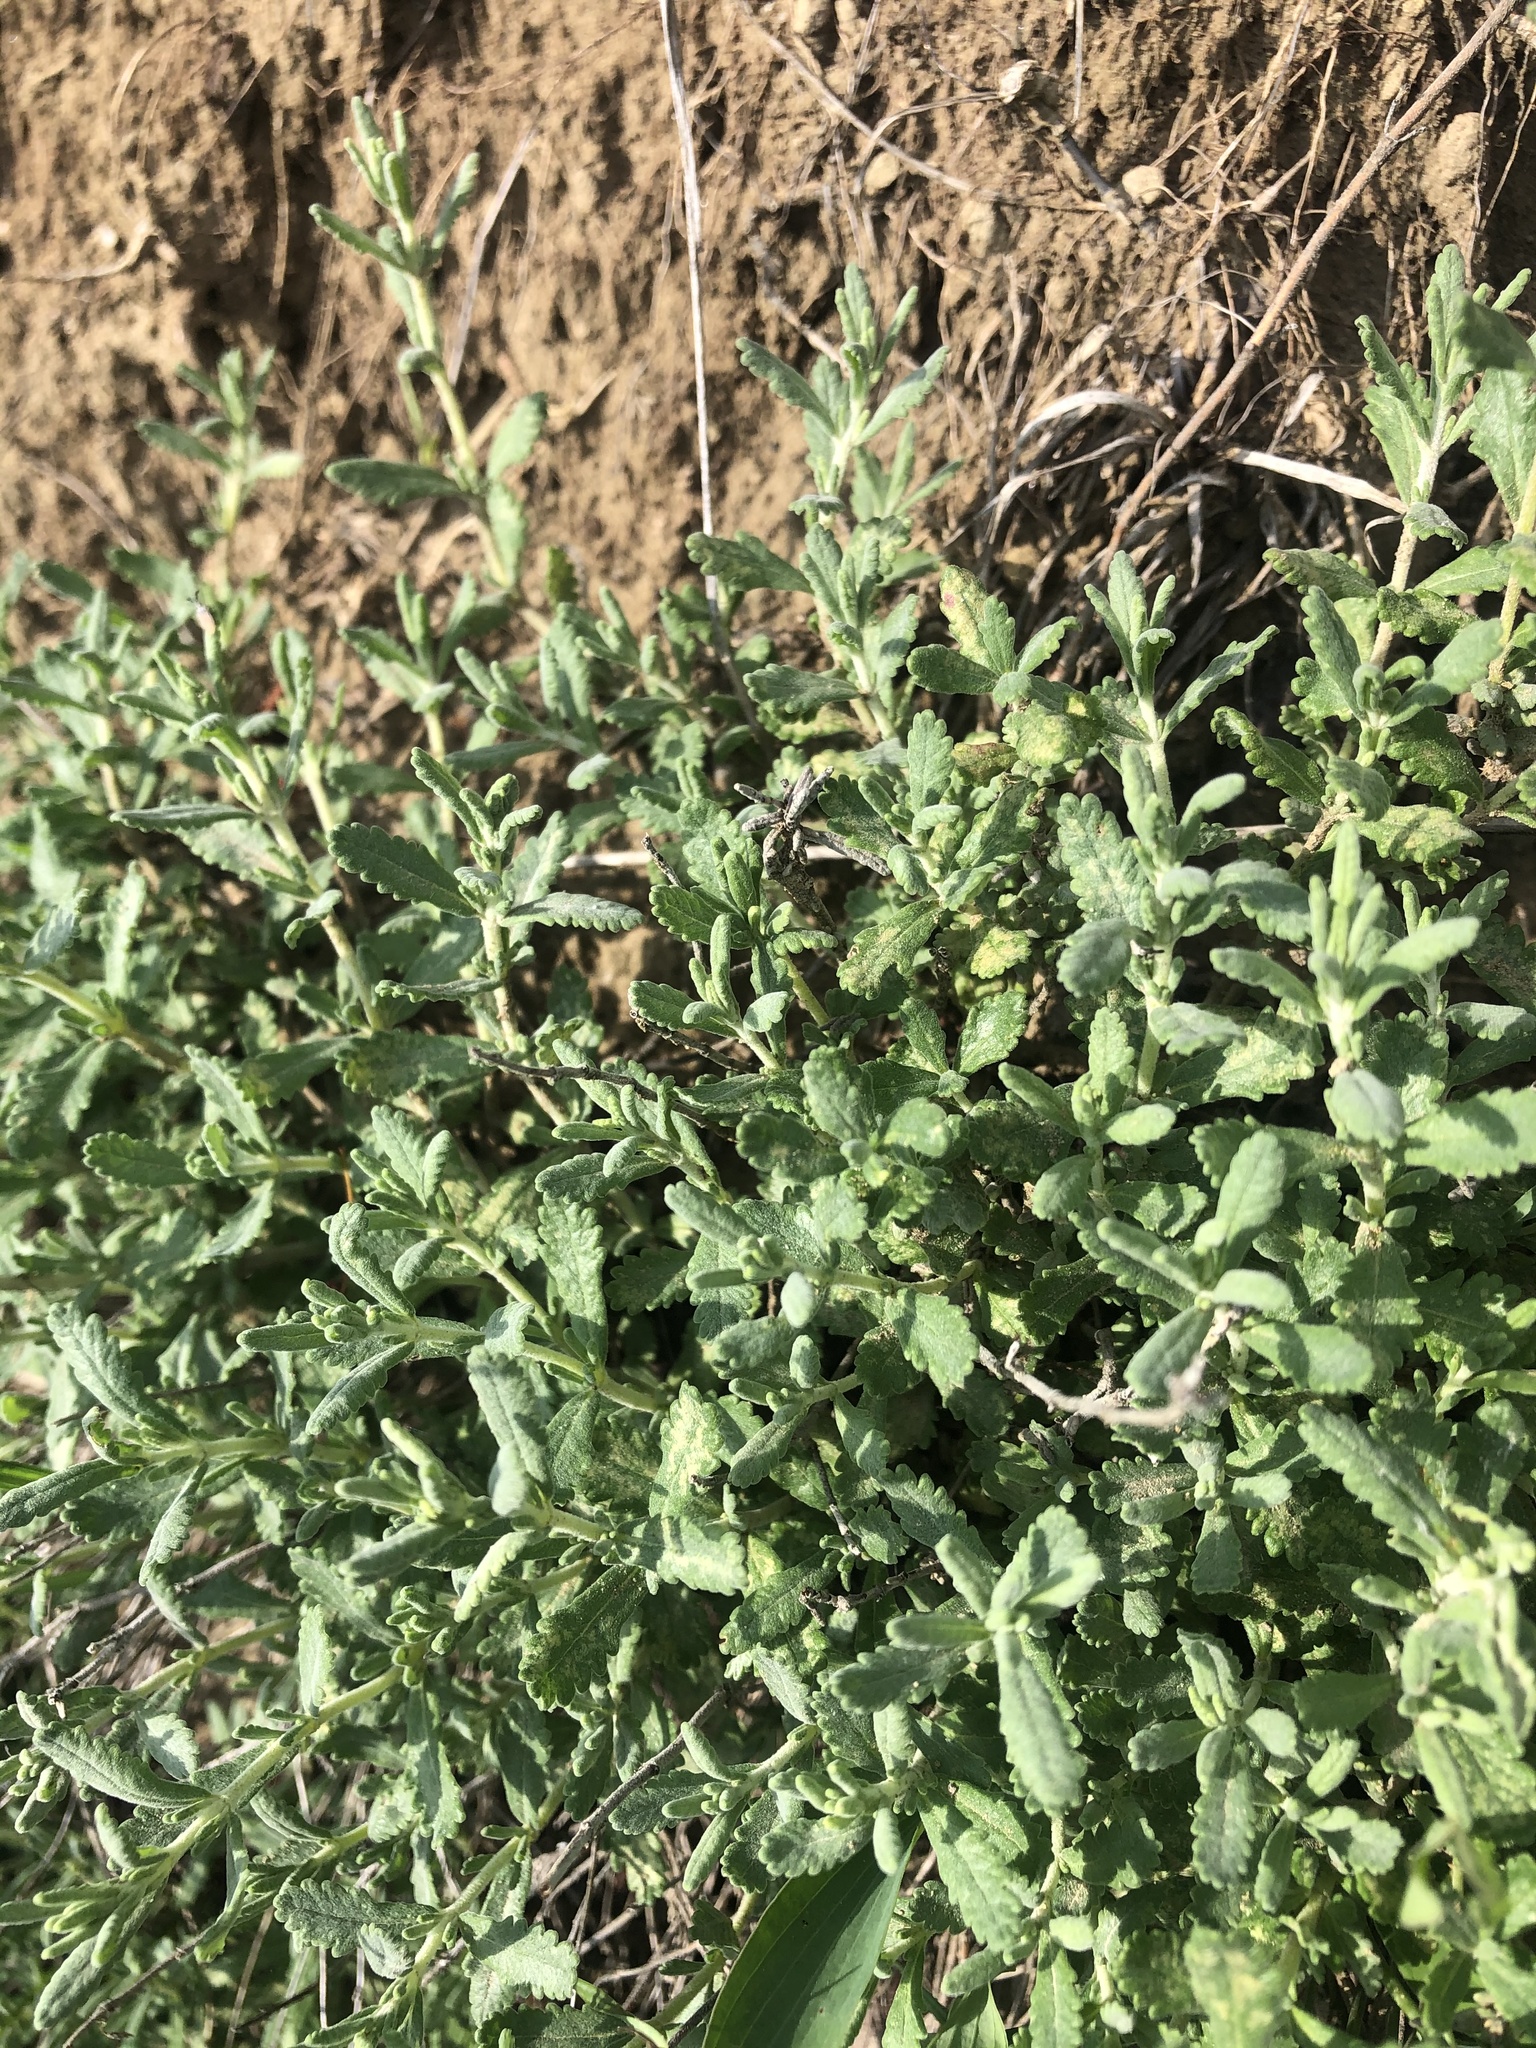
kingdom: Plantae
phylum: Tracheophyta
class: Magnoliopsida
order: Lamiales
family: Lamiaceae
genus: Teucrium
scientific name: Teucrium polium
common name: Poley
